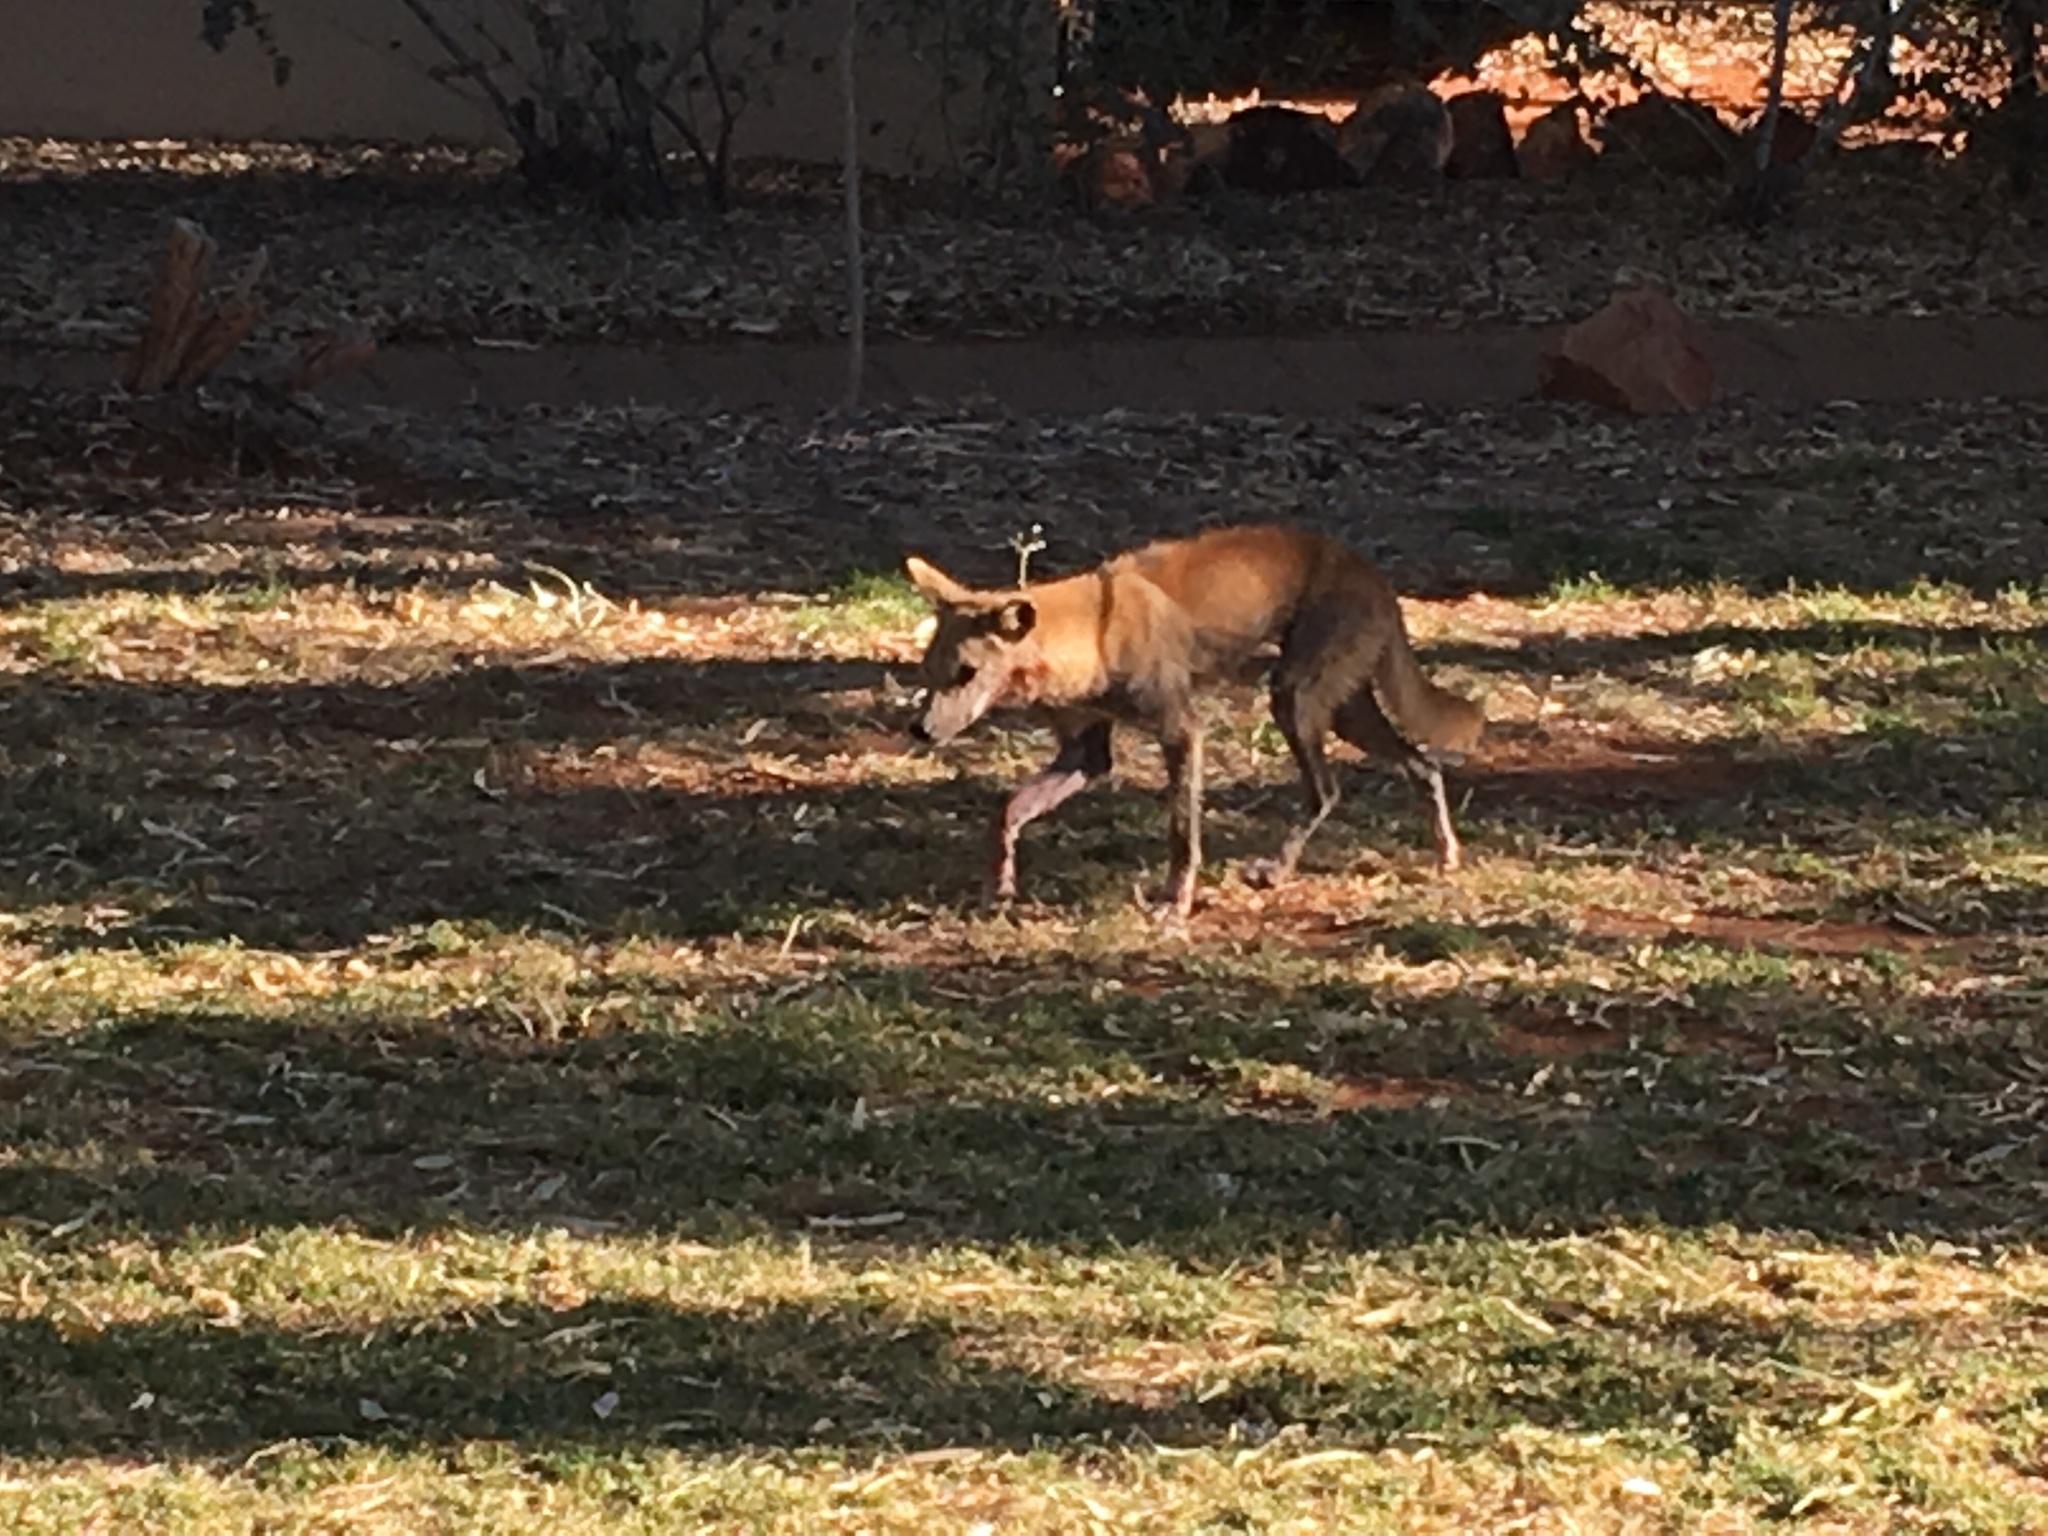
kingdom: Animalia
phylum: Chordata
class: Mammalia
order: Carnivora
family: Canidae
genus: Canis
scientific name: Canis lupus
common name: Gray wolf
